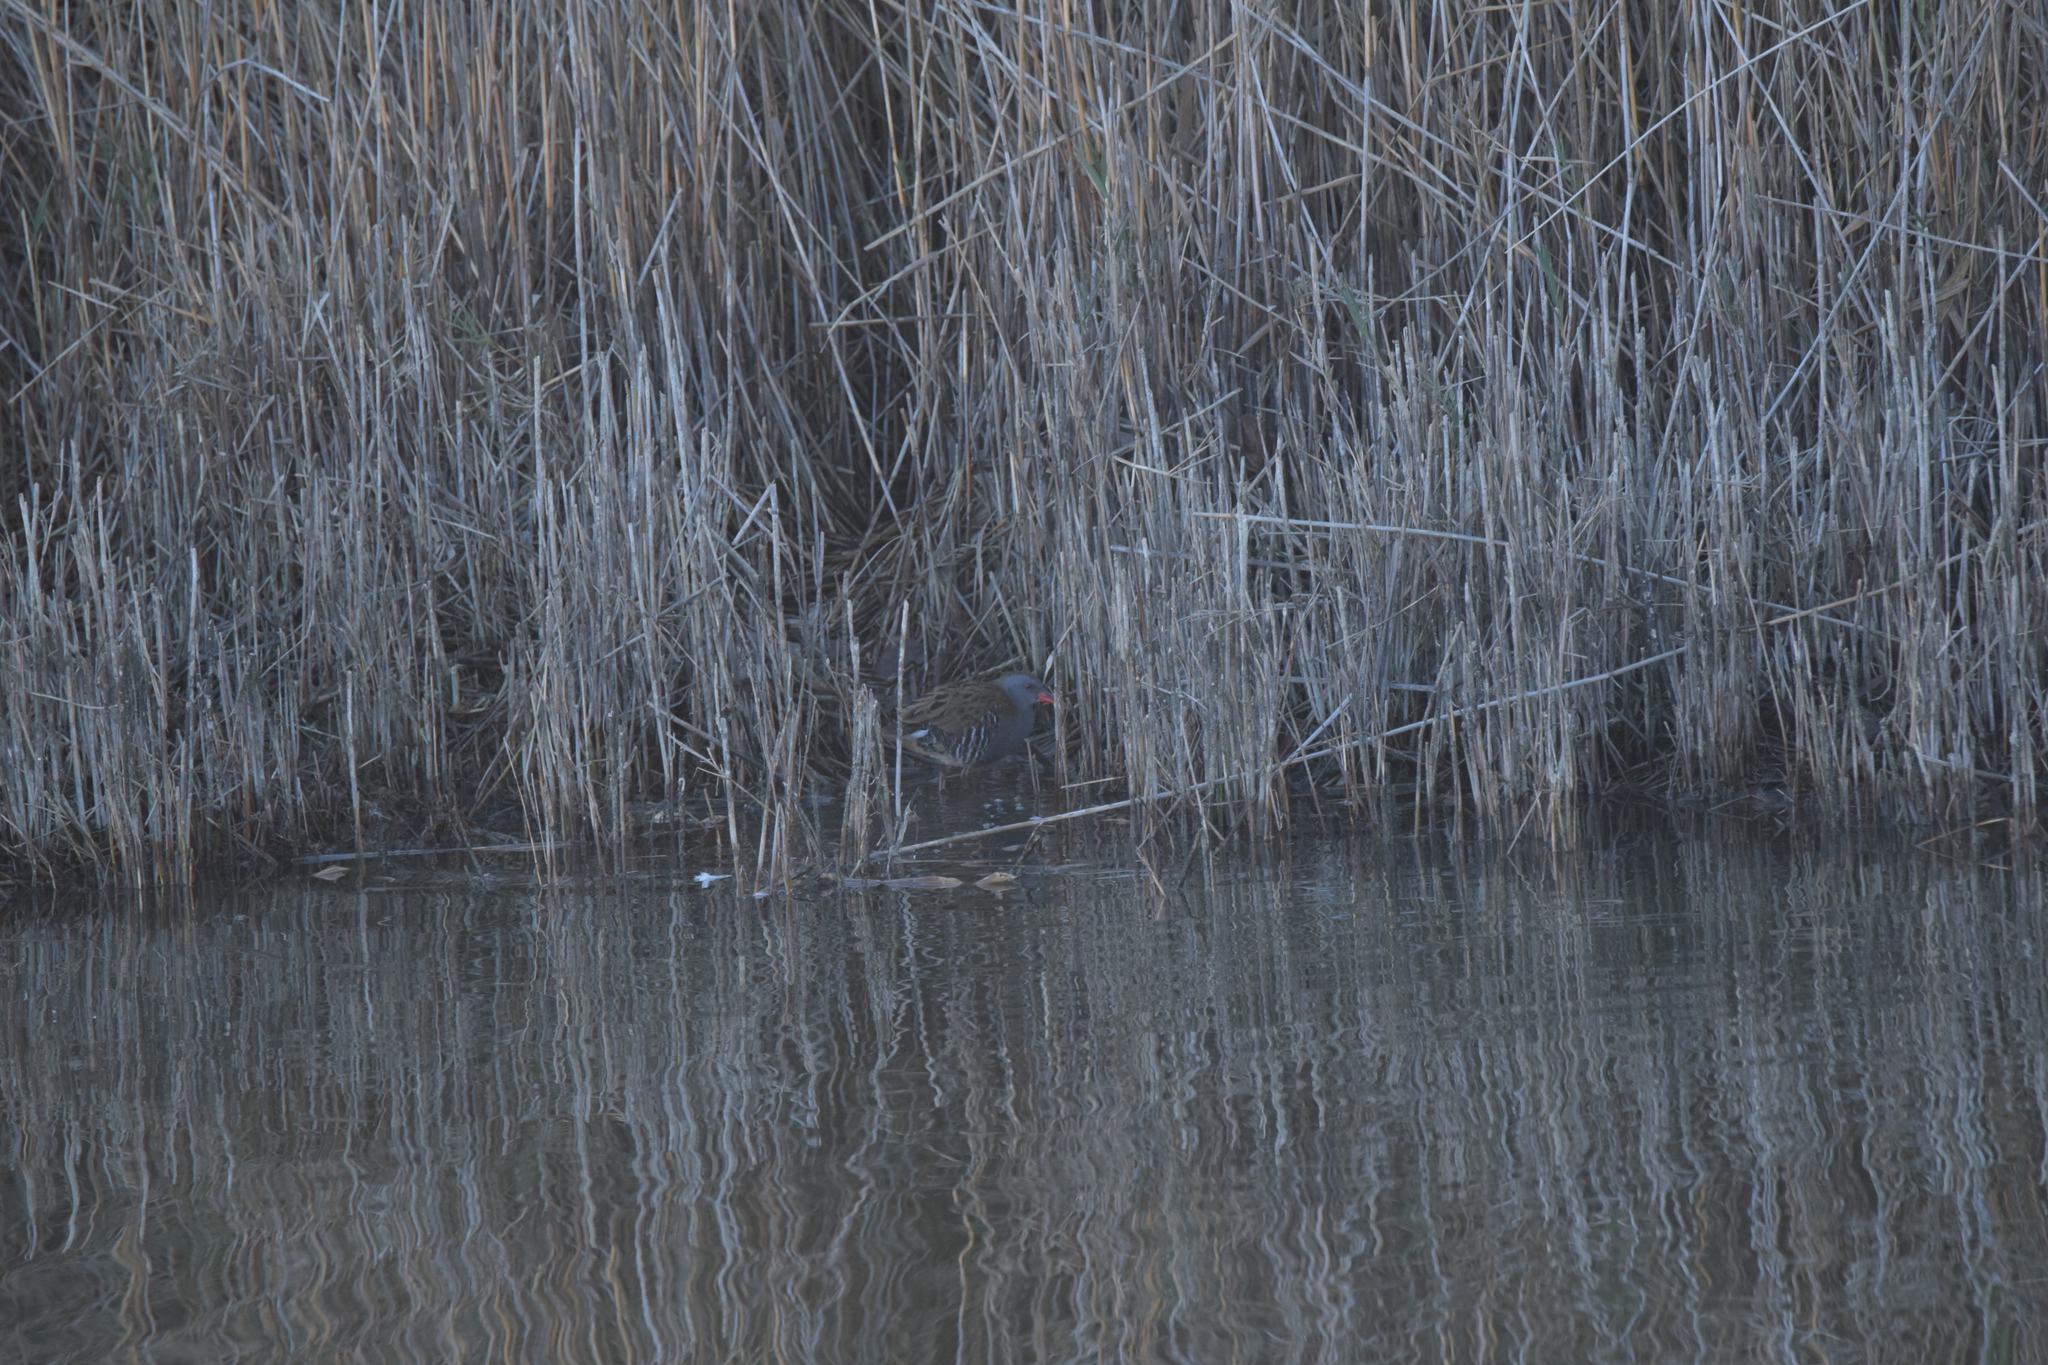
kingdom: Animalia
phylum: Chordata
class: Aves
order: Gruiformes
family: Rallidae
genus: Rallus
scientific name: Rallus aquaticus
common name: Water rail
